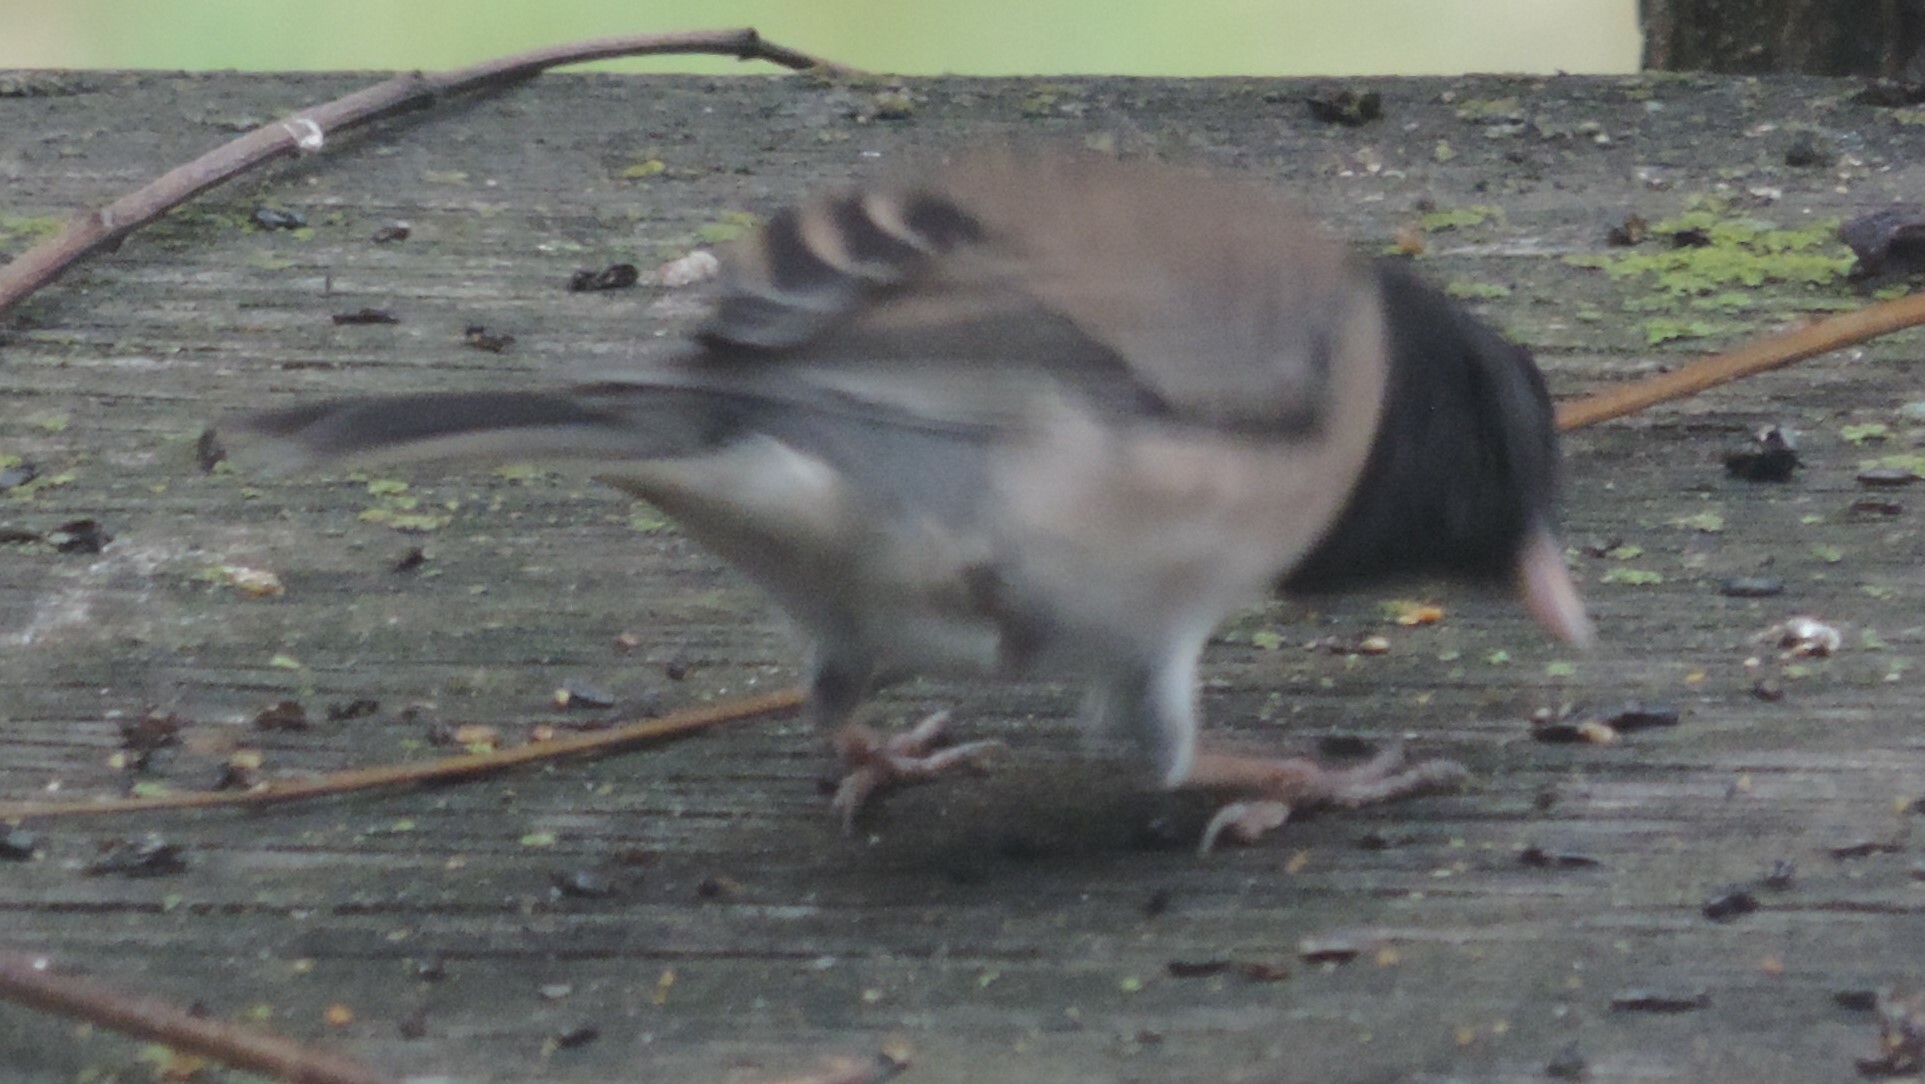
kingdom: Animalia
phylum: Chordata
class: Aves
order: Passeriformes
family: Passerellidae
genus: Junco
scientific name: Junco hyemalis
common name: Dark-eyed junco
